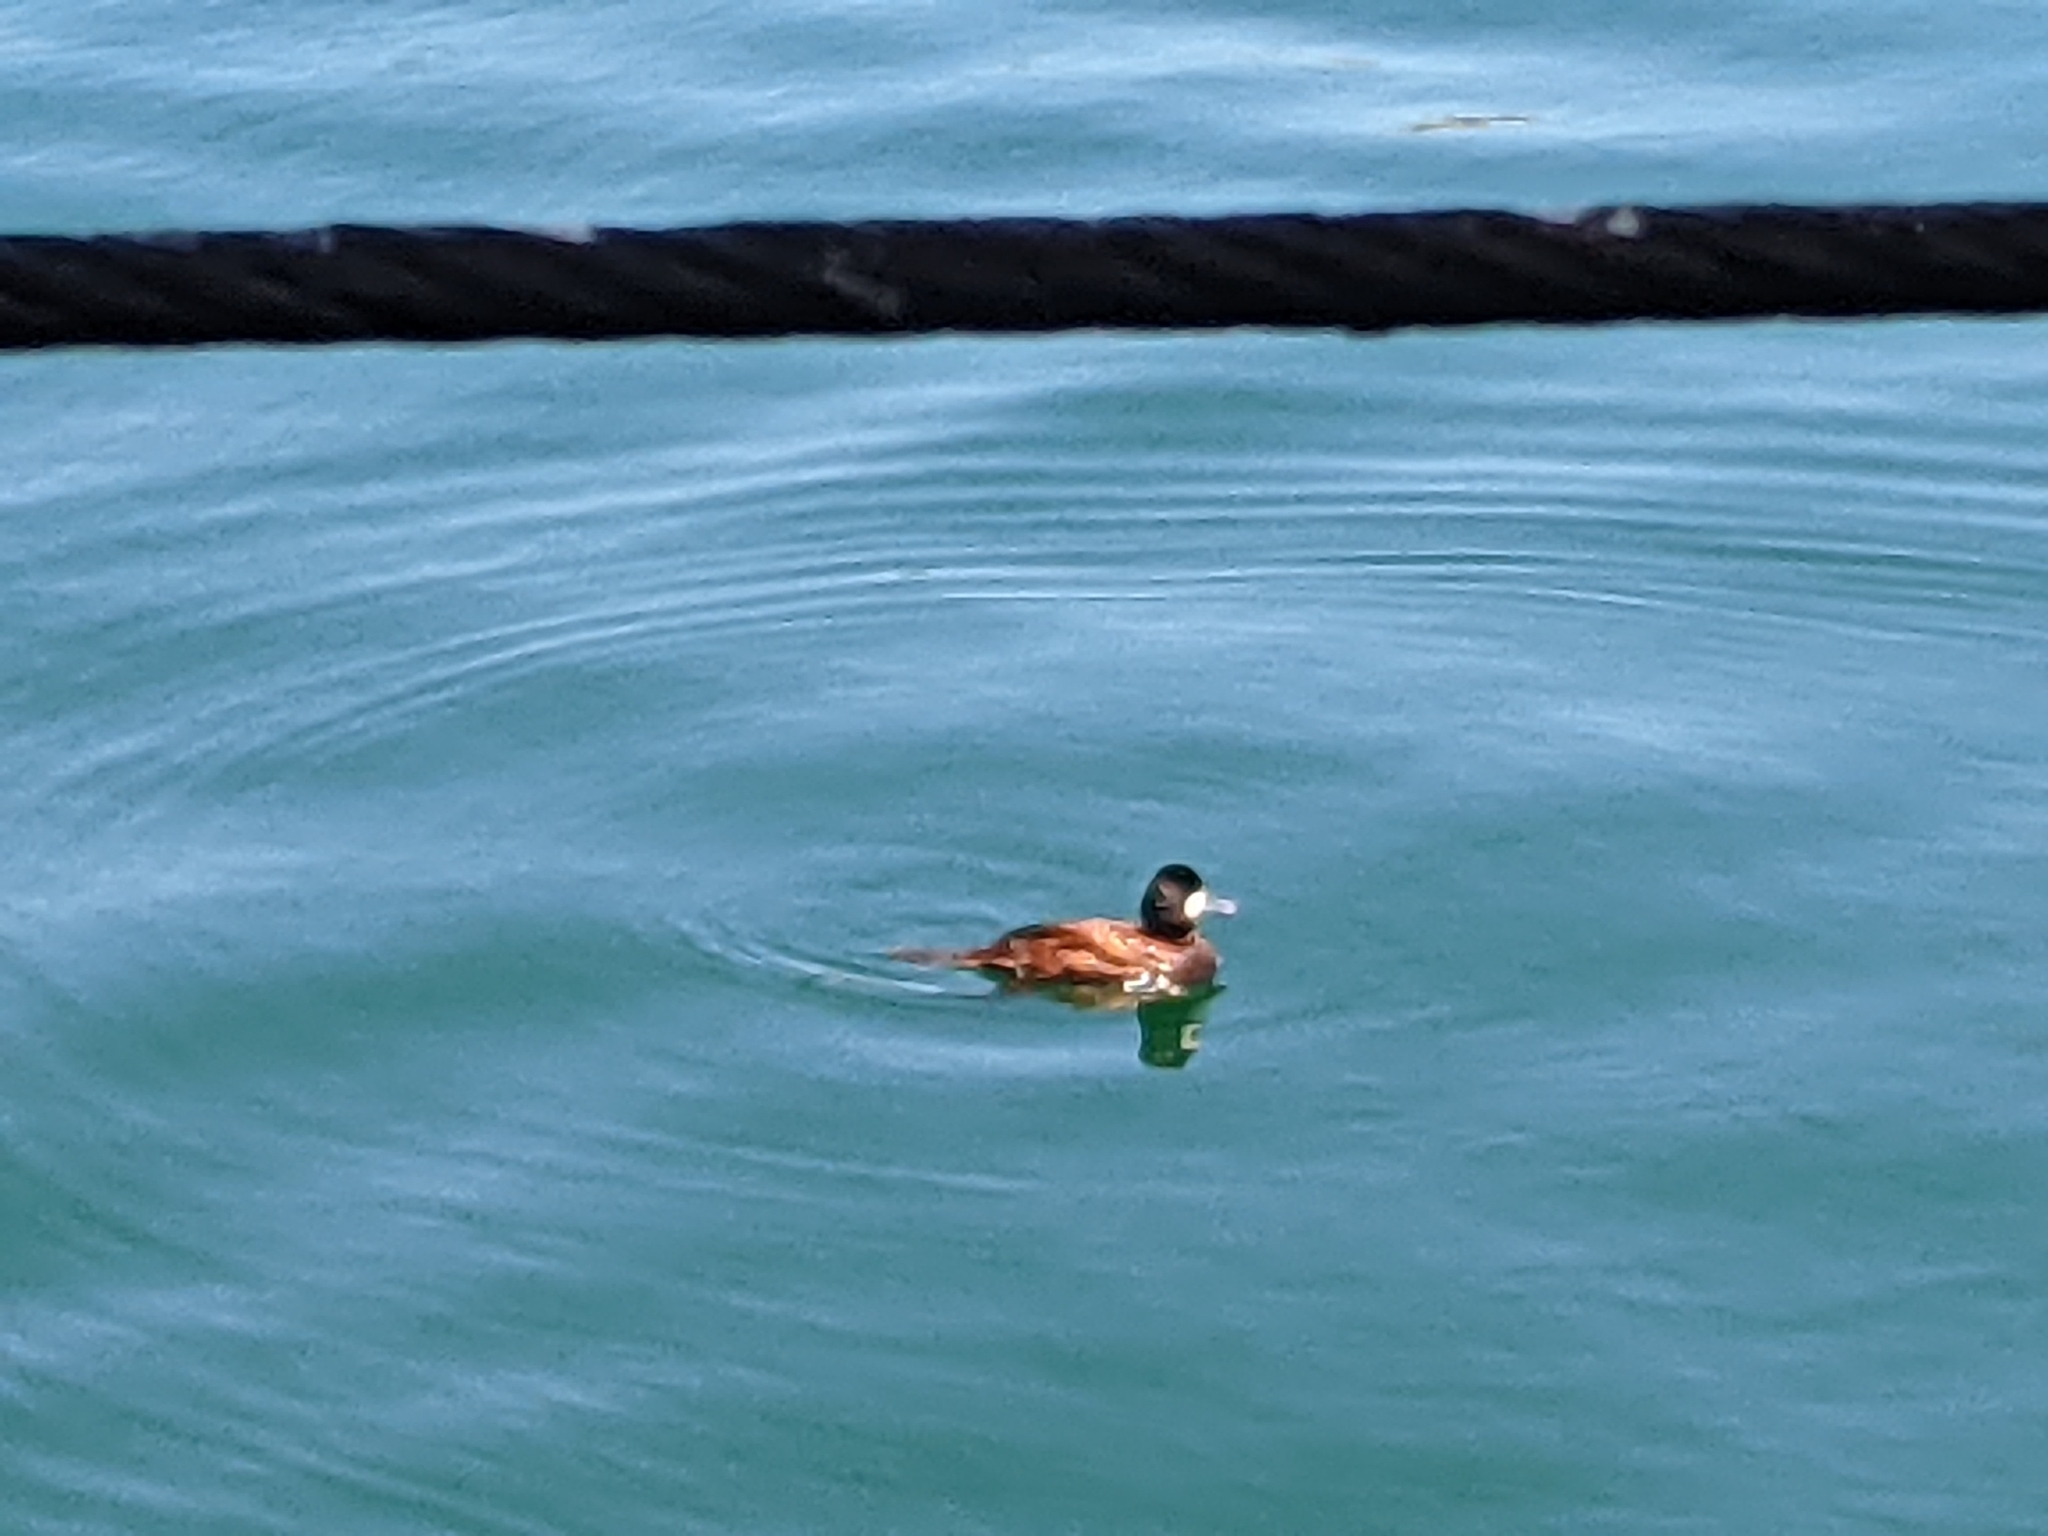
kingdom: Animalia
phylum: Chordata
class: Aves
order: Anseriformes
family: Anatidae
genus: Oxyura
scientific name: Oxyura jamaicensis
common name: Ruddy duck
